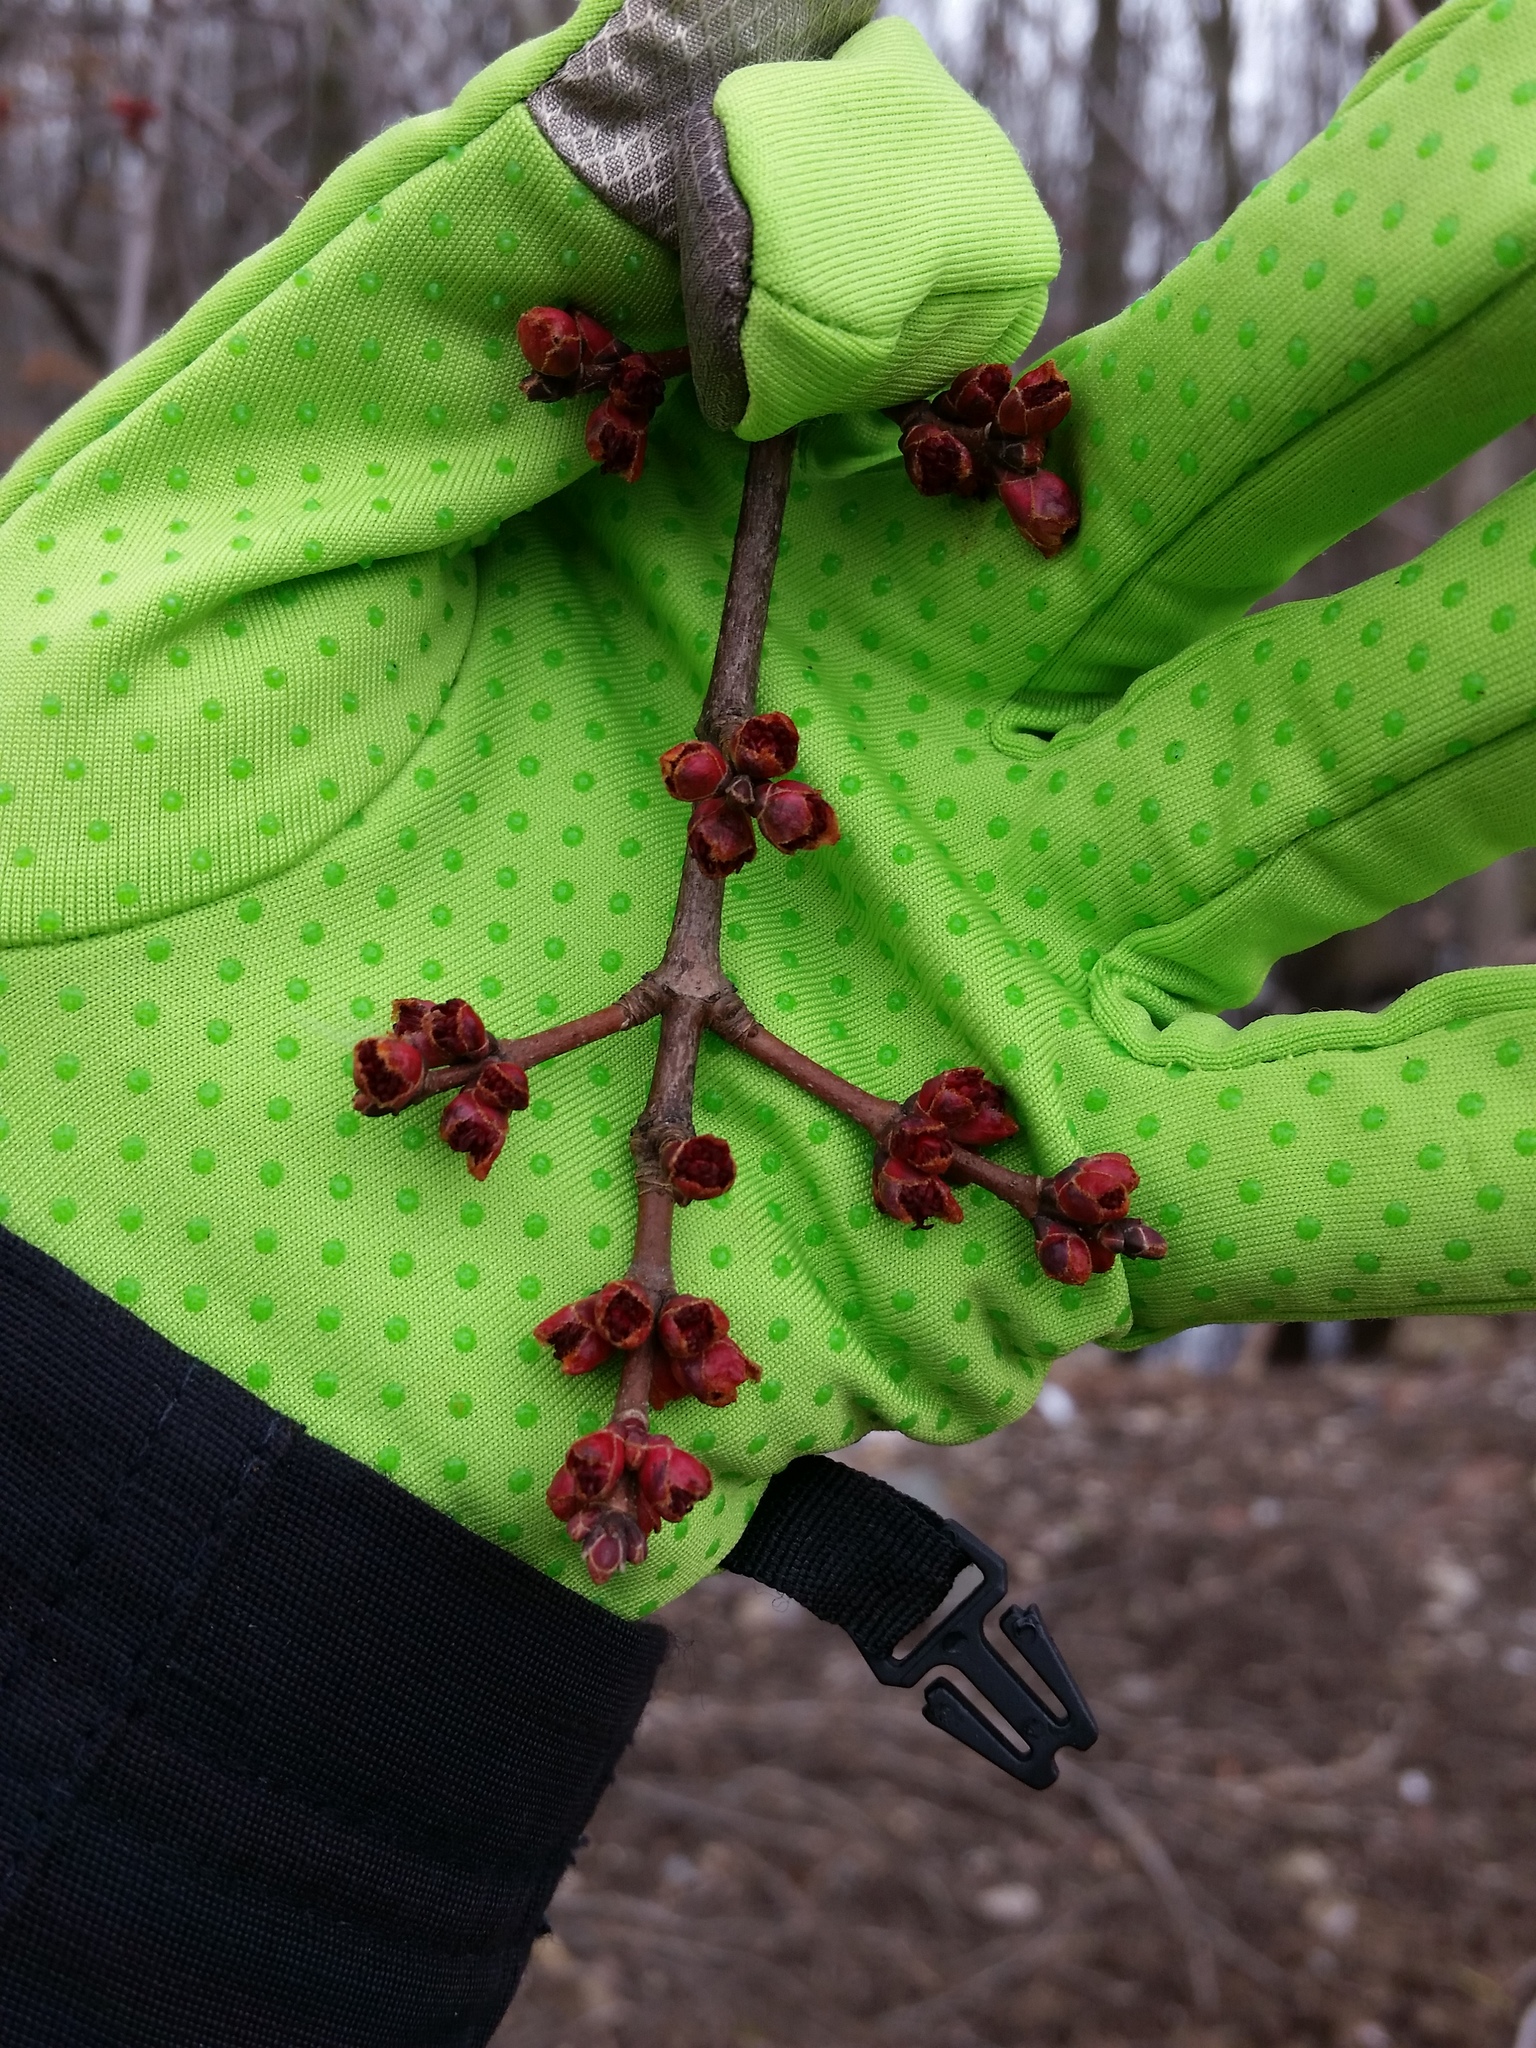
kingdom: Plantae
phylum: Tracheophyta
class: Magnoliopsida
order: Sapindales
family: Sapindaceae
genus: Acer
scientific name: Acer rubrum
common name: Red maple
